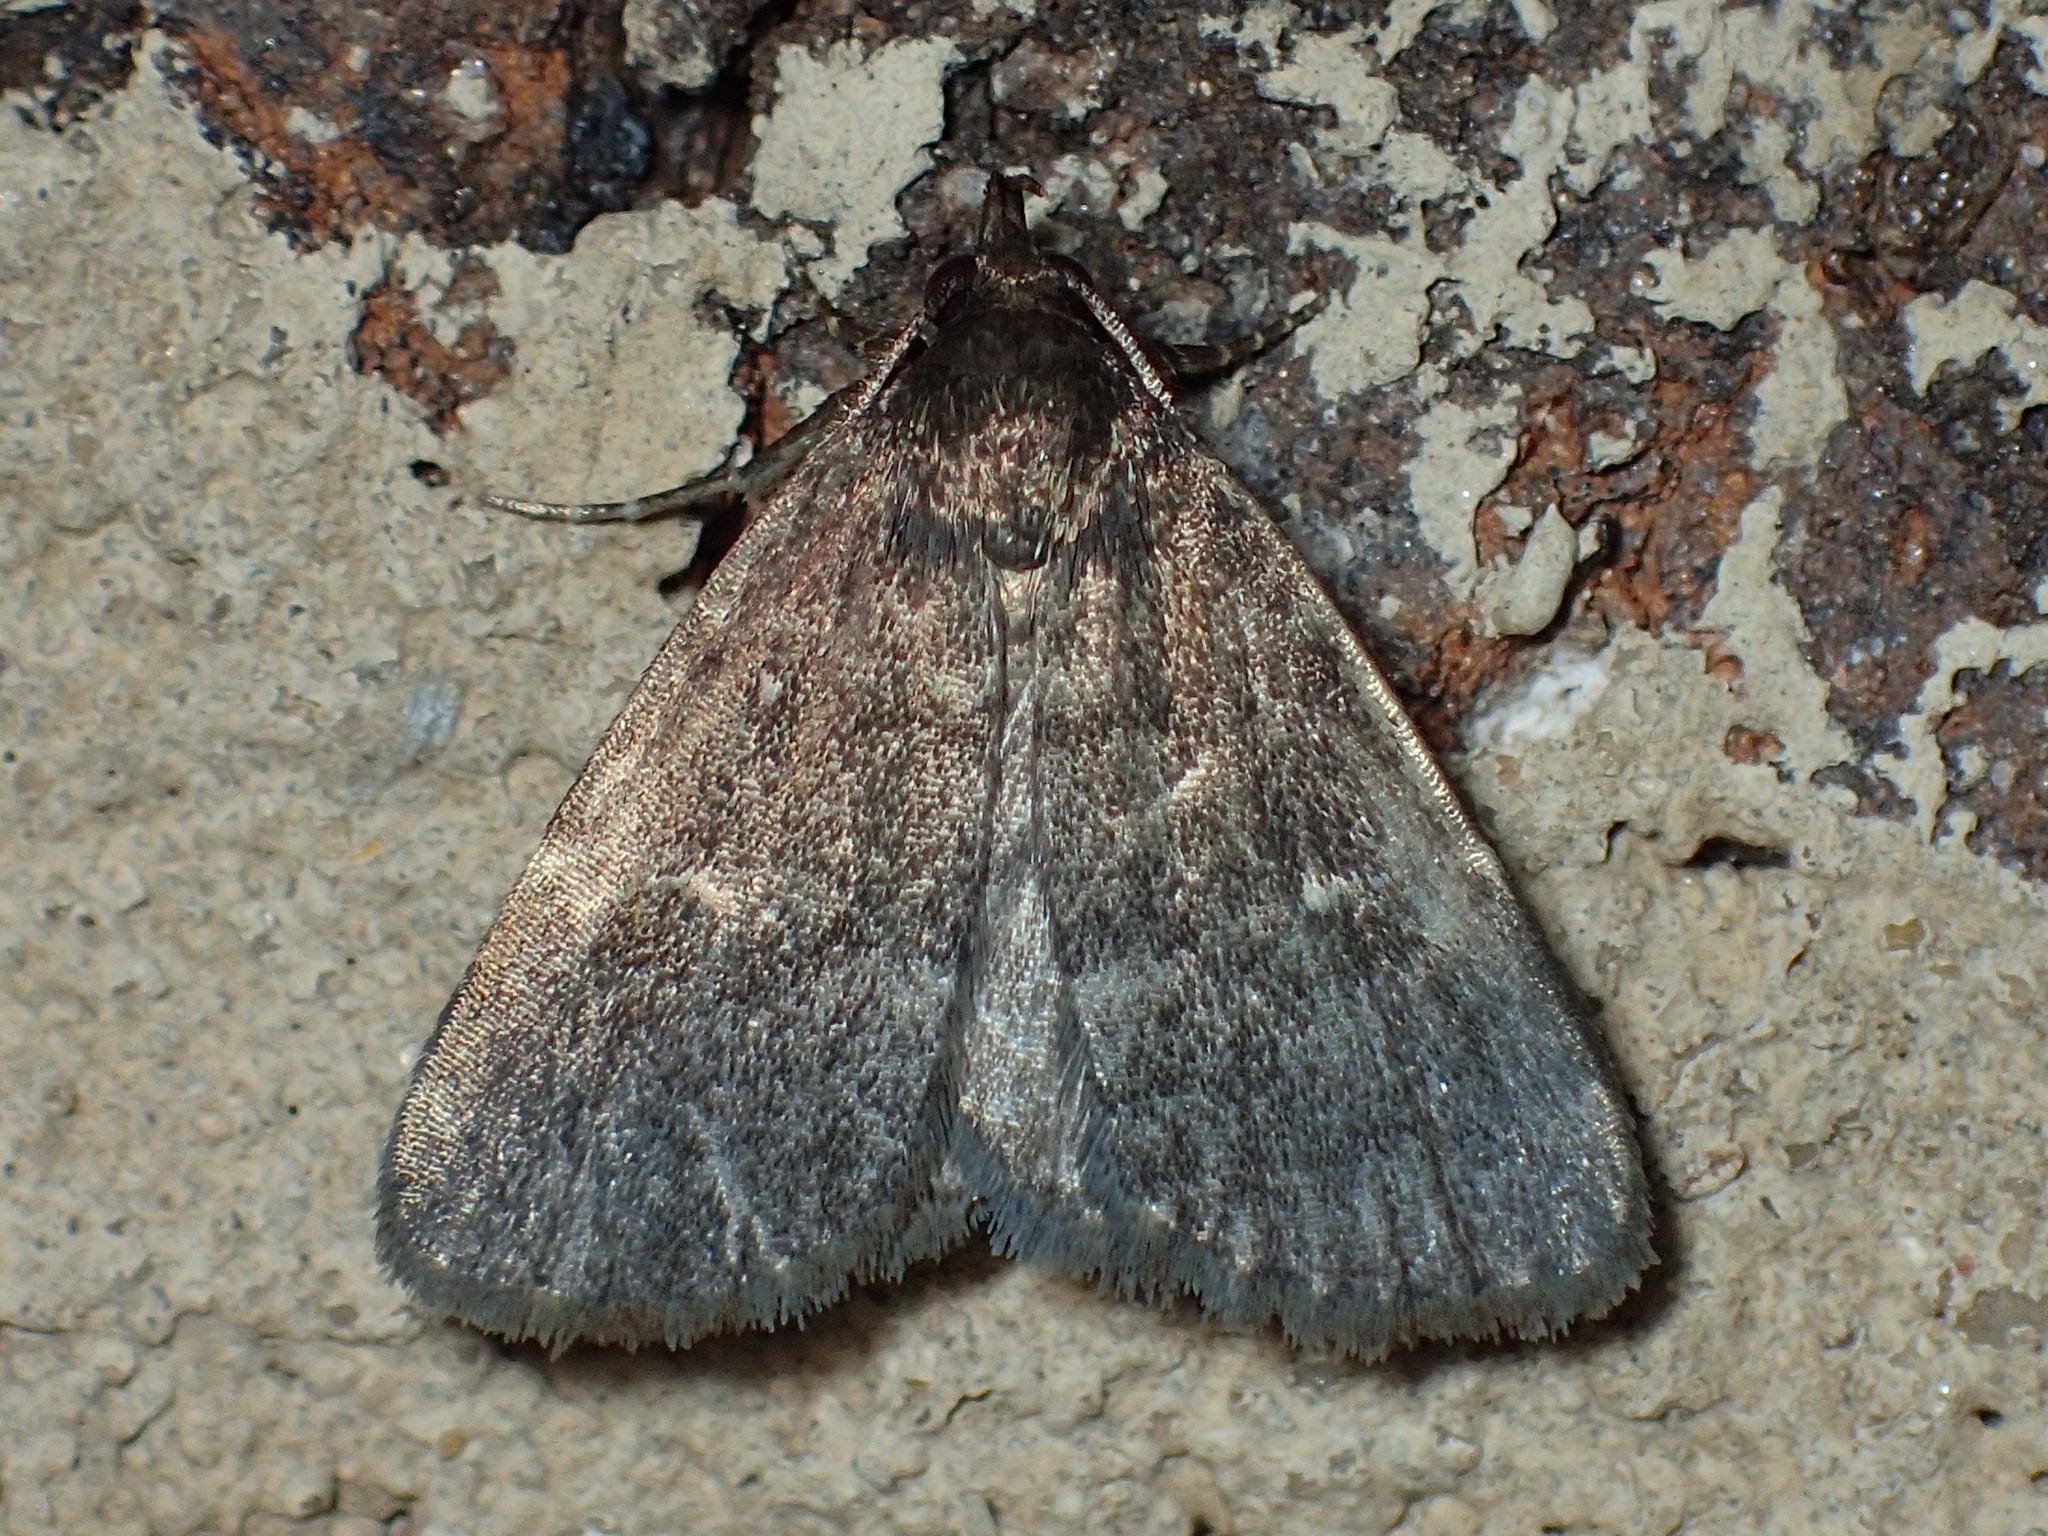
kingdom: Animalia
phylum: Arthropoda
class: Insecta
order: Lepidoptera
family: Erebidae
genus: Idia
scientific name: Idia rotundalis
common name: Rotund idia moth
